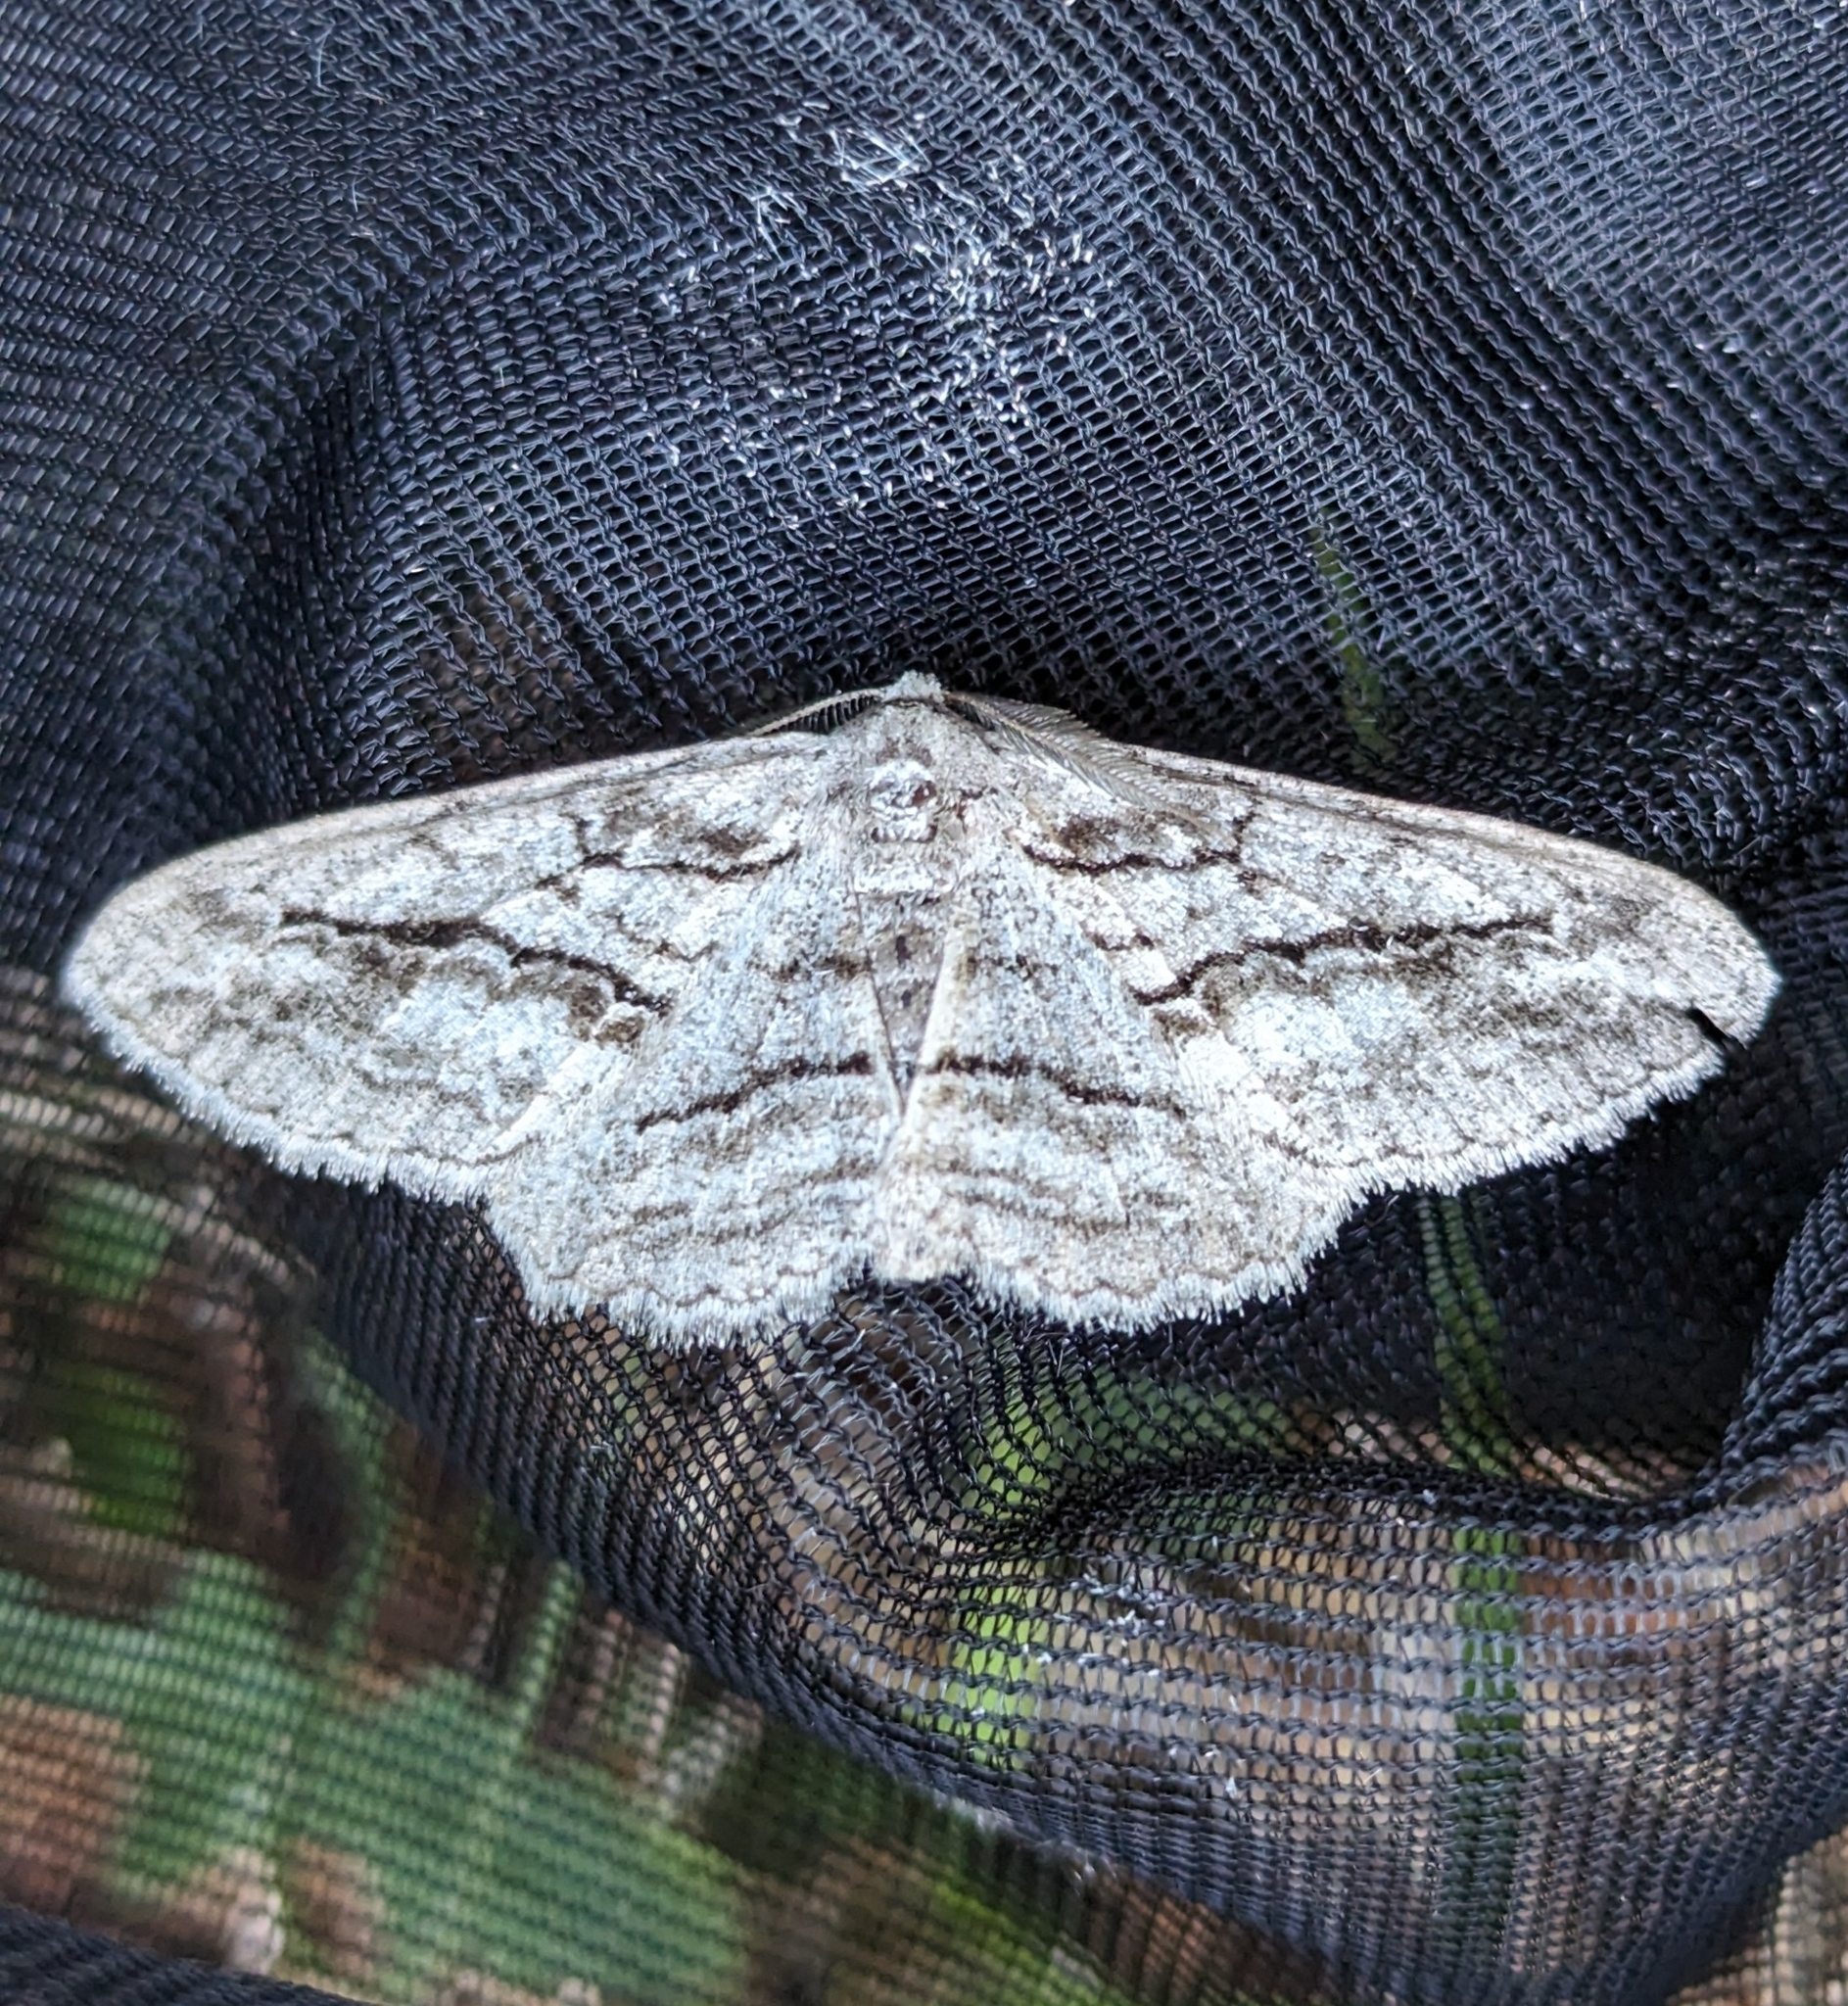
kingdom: Animalia
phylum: Arthropoda
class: Insecta
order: Lepidoptera
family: Geometridae
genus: Stenoporpia
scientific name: Stenoporpia excelsaria
